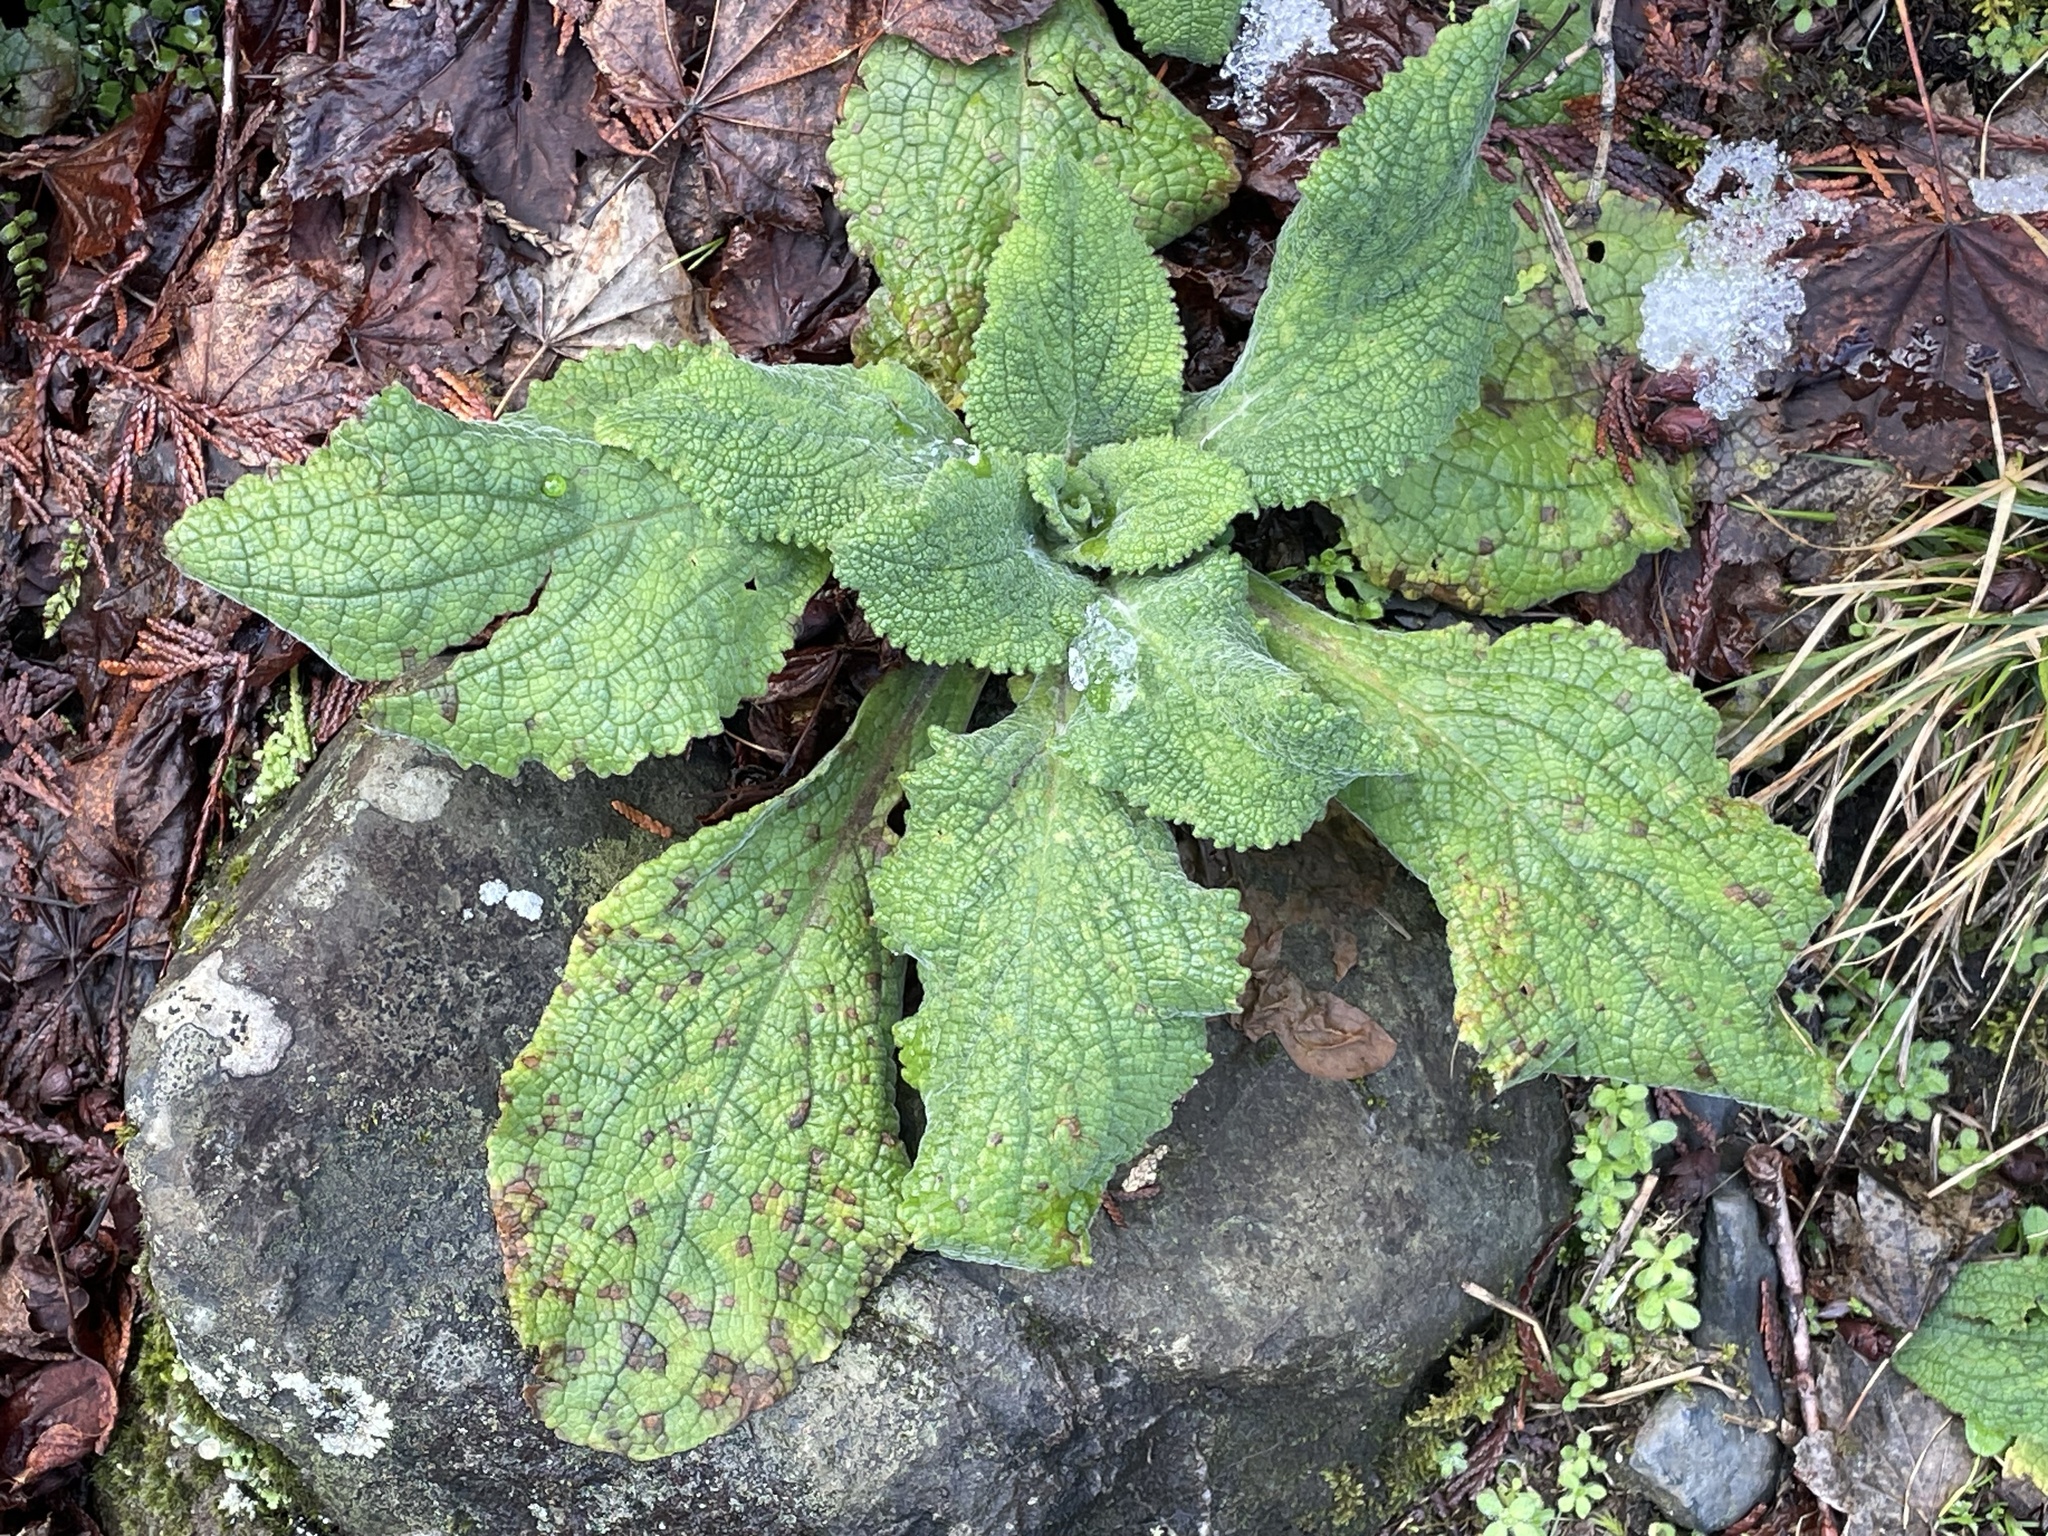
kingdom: Plantae
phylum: Tracheophyta
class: Magnoliopsida
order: Lamiales
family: Plantaginaceae
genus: Digitalis
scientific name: Digitalis purpurea
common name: Foxglove
